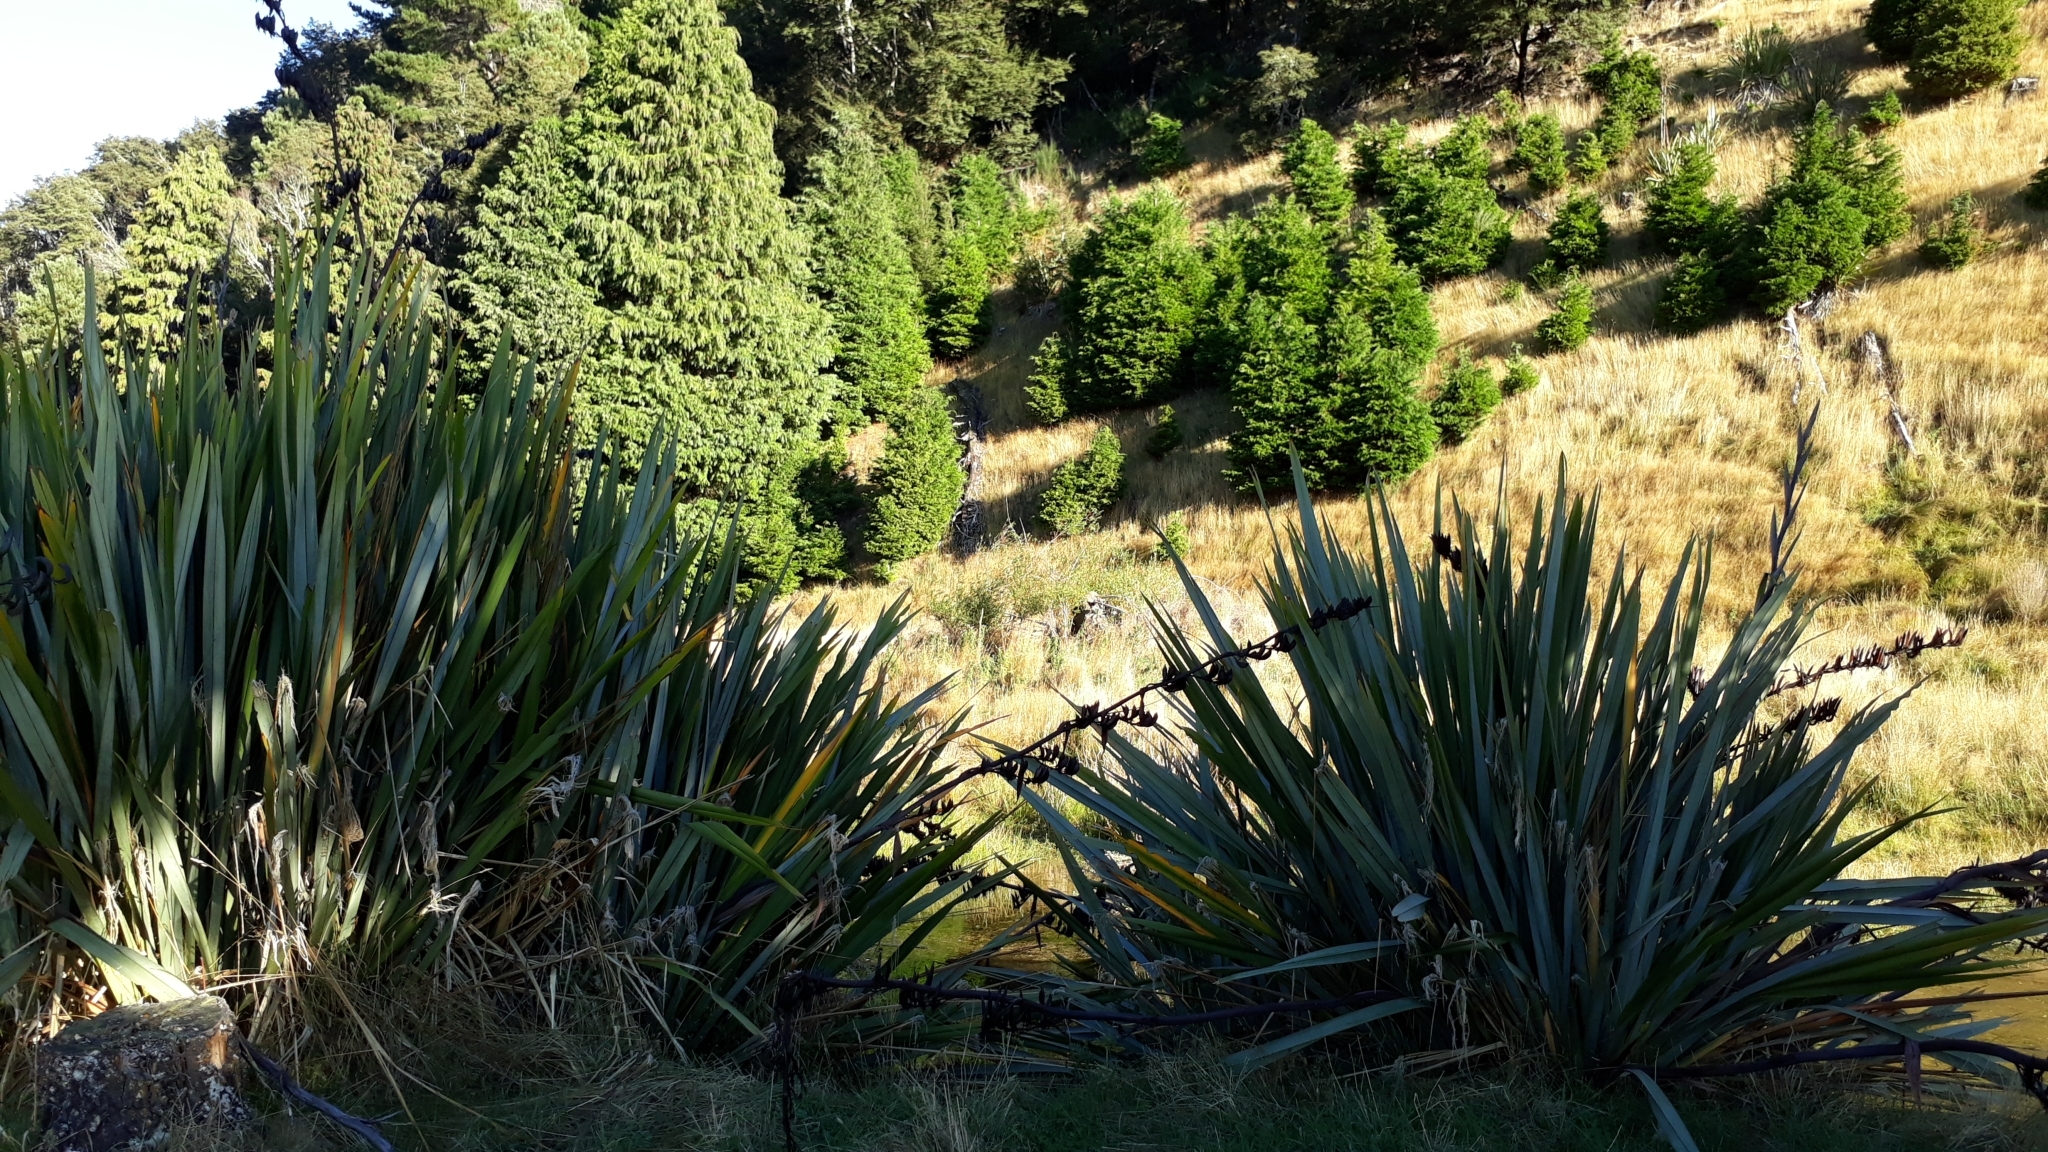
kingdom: Plantae
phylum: Tracheophyta
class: Liliopsida
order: Asparagales
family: Asphodelaceae
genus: Phormium
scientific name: Phormium tenax
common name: New zealand flax
